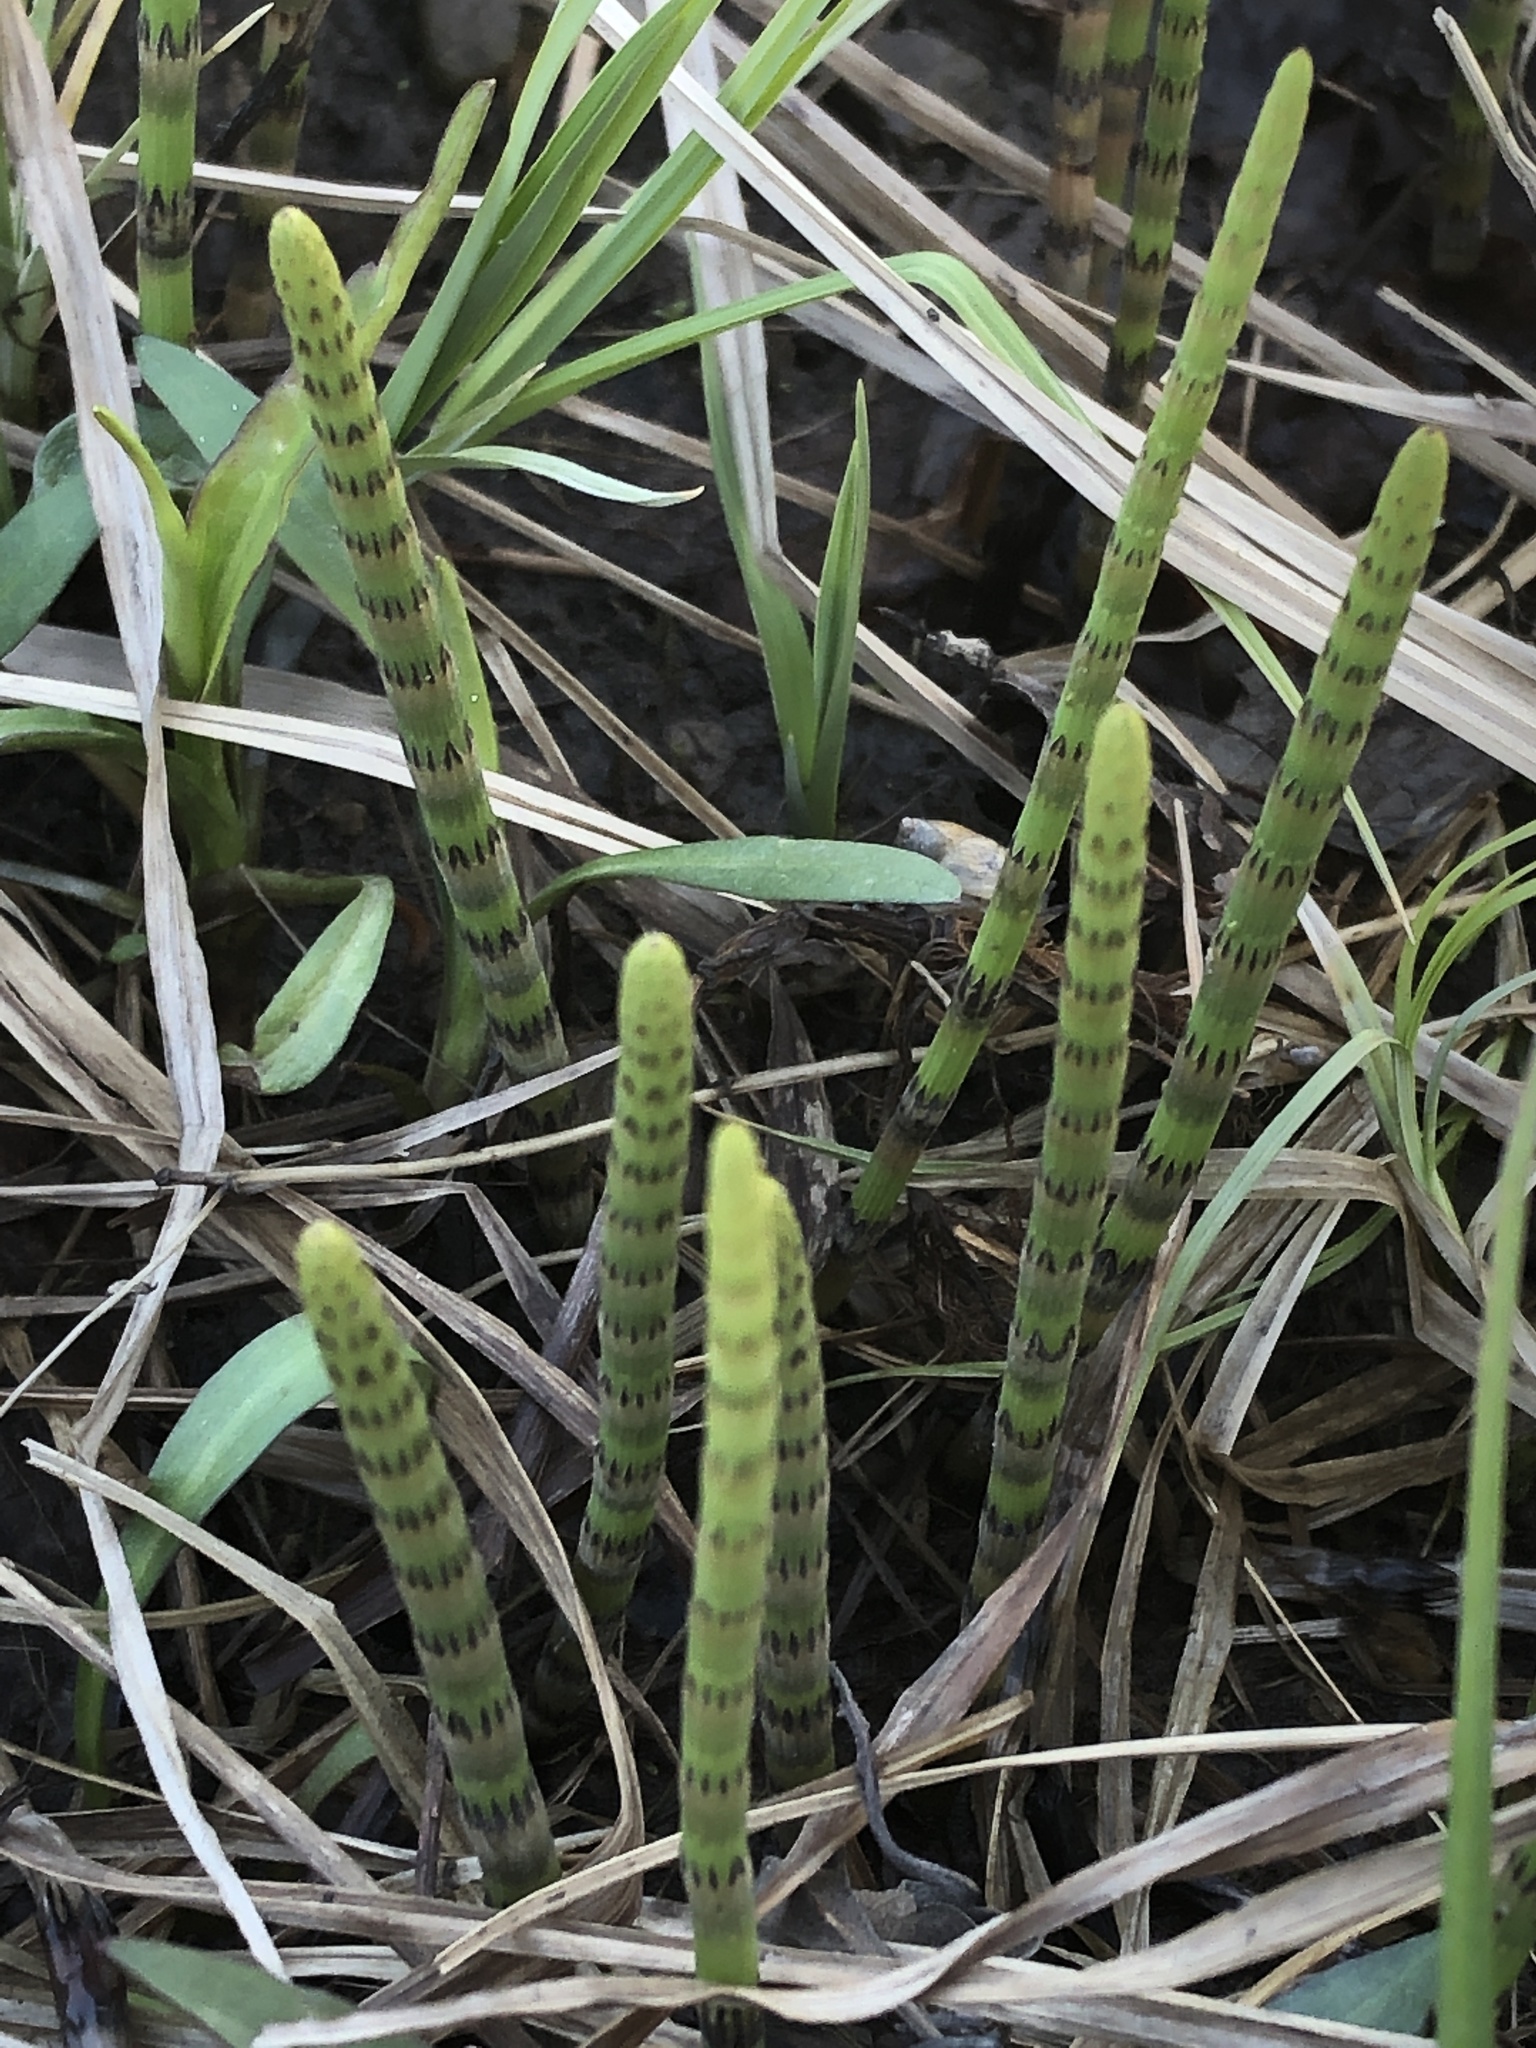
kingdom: Plantae
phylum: Tracheophyta
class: Polypodiopsida
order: Equisetales
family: Equisetaceae
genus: Equisetum
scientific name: Equisetum fluviatile
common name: Water horsetail
